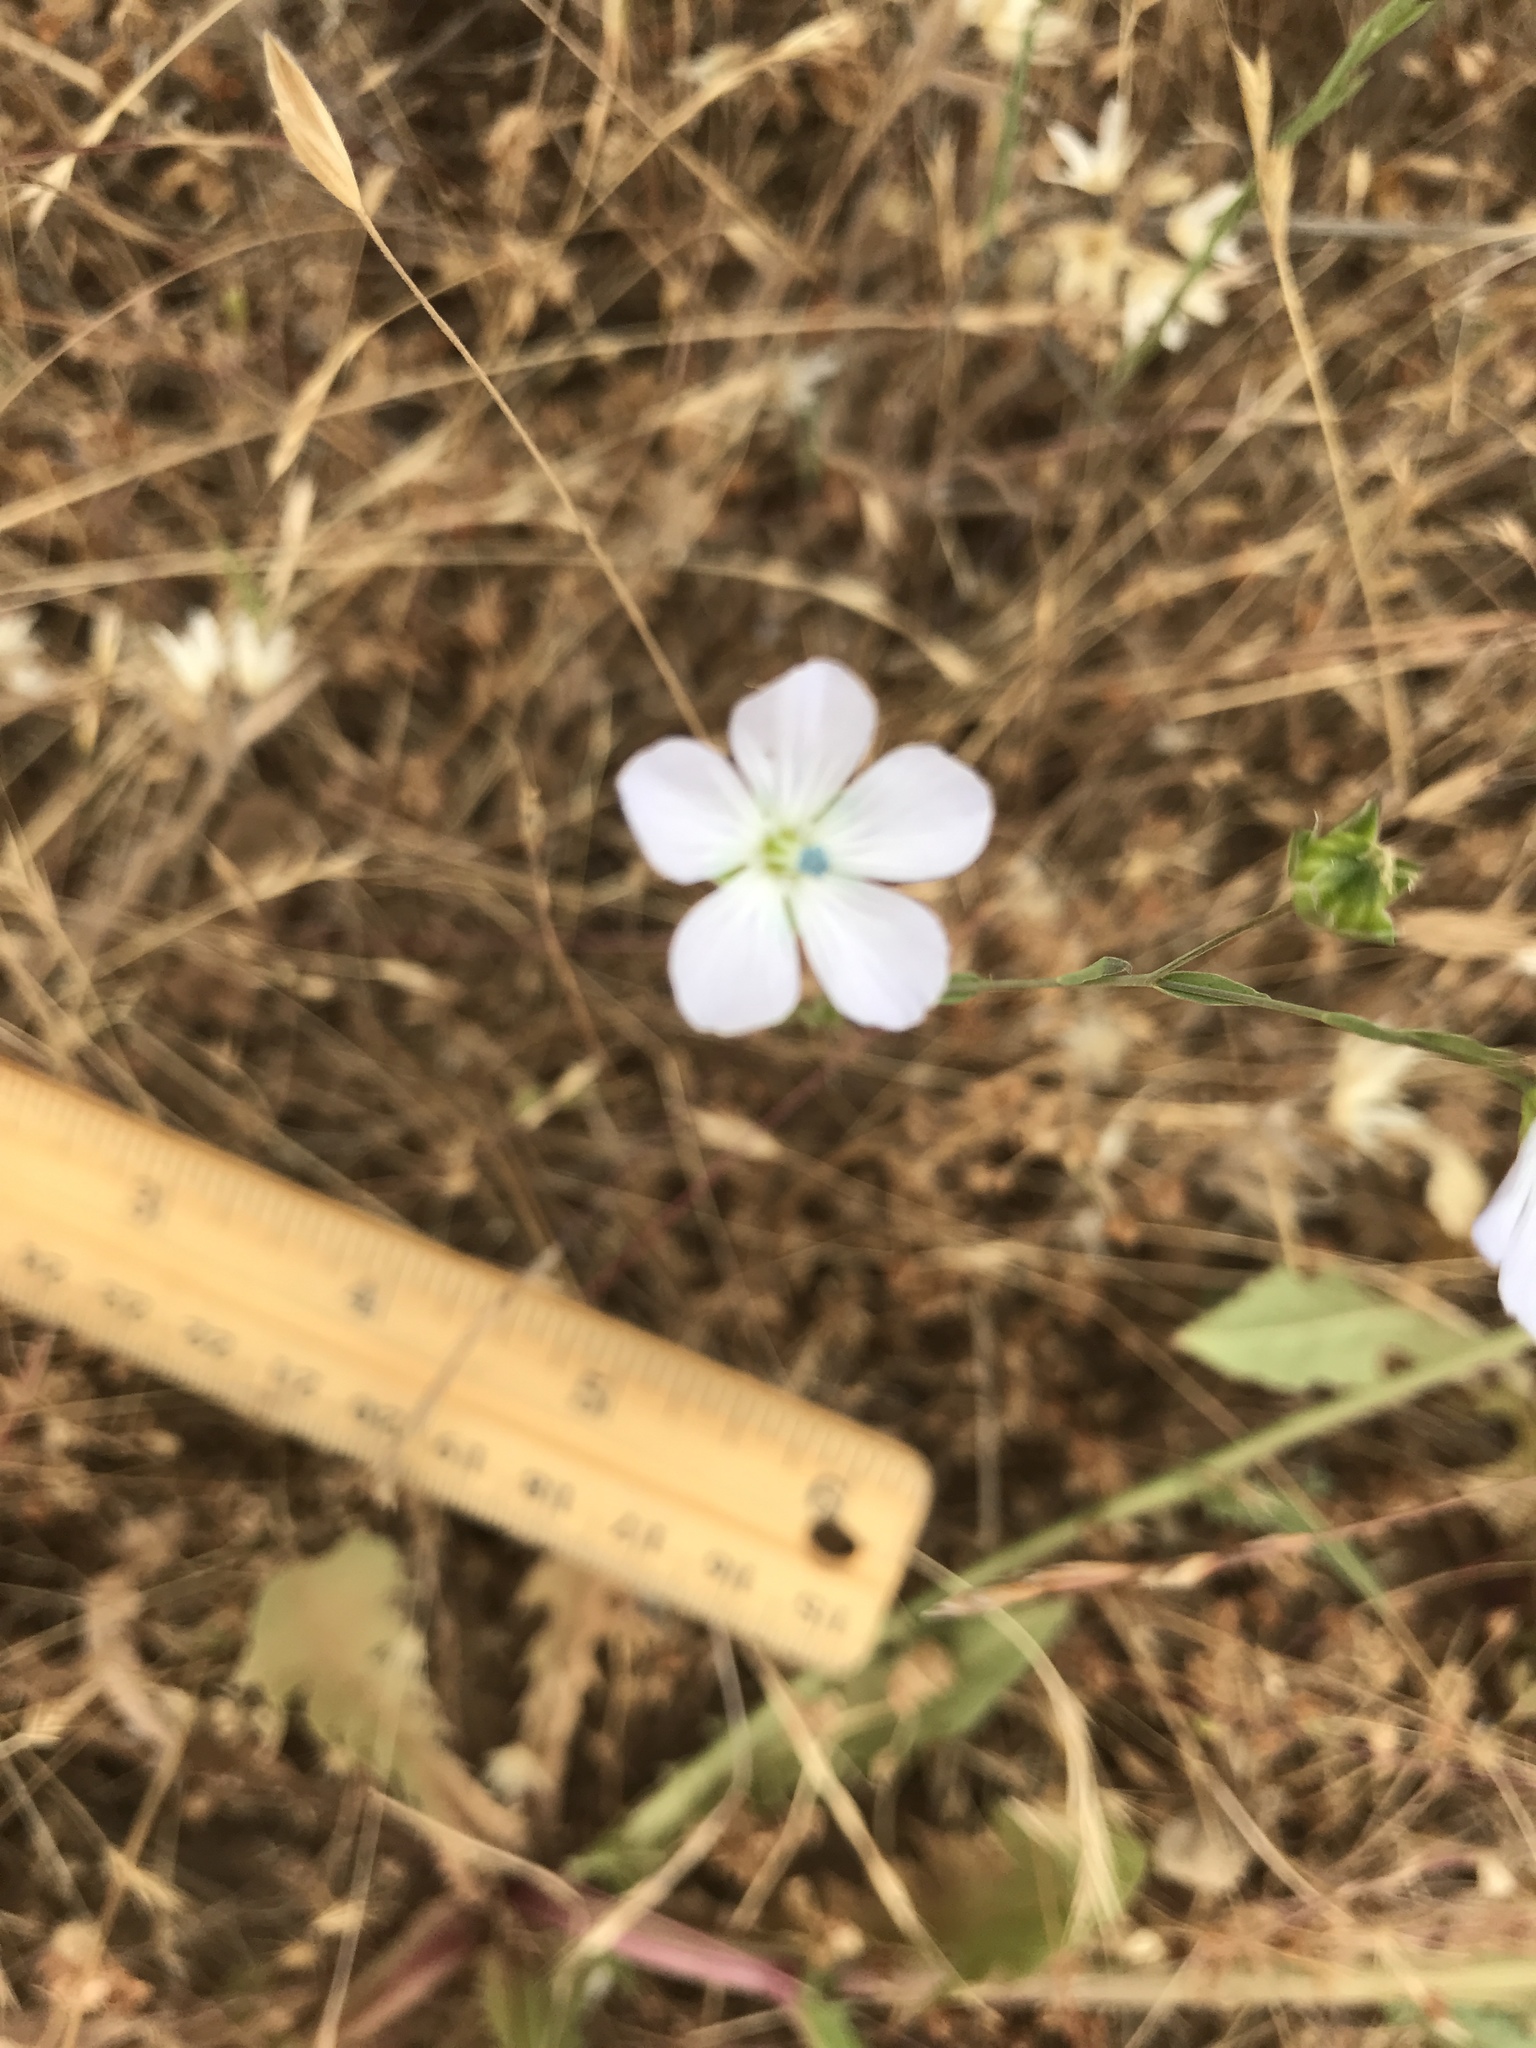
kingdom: Plantae
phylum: Tracheophyta
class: Magnoliopsida
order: Malpighiales
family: Linaceae
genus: Linum
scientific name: Linum bienne
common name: Pale flax
